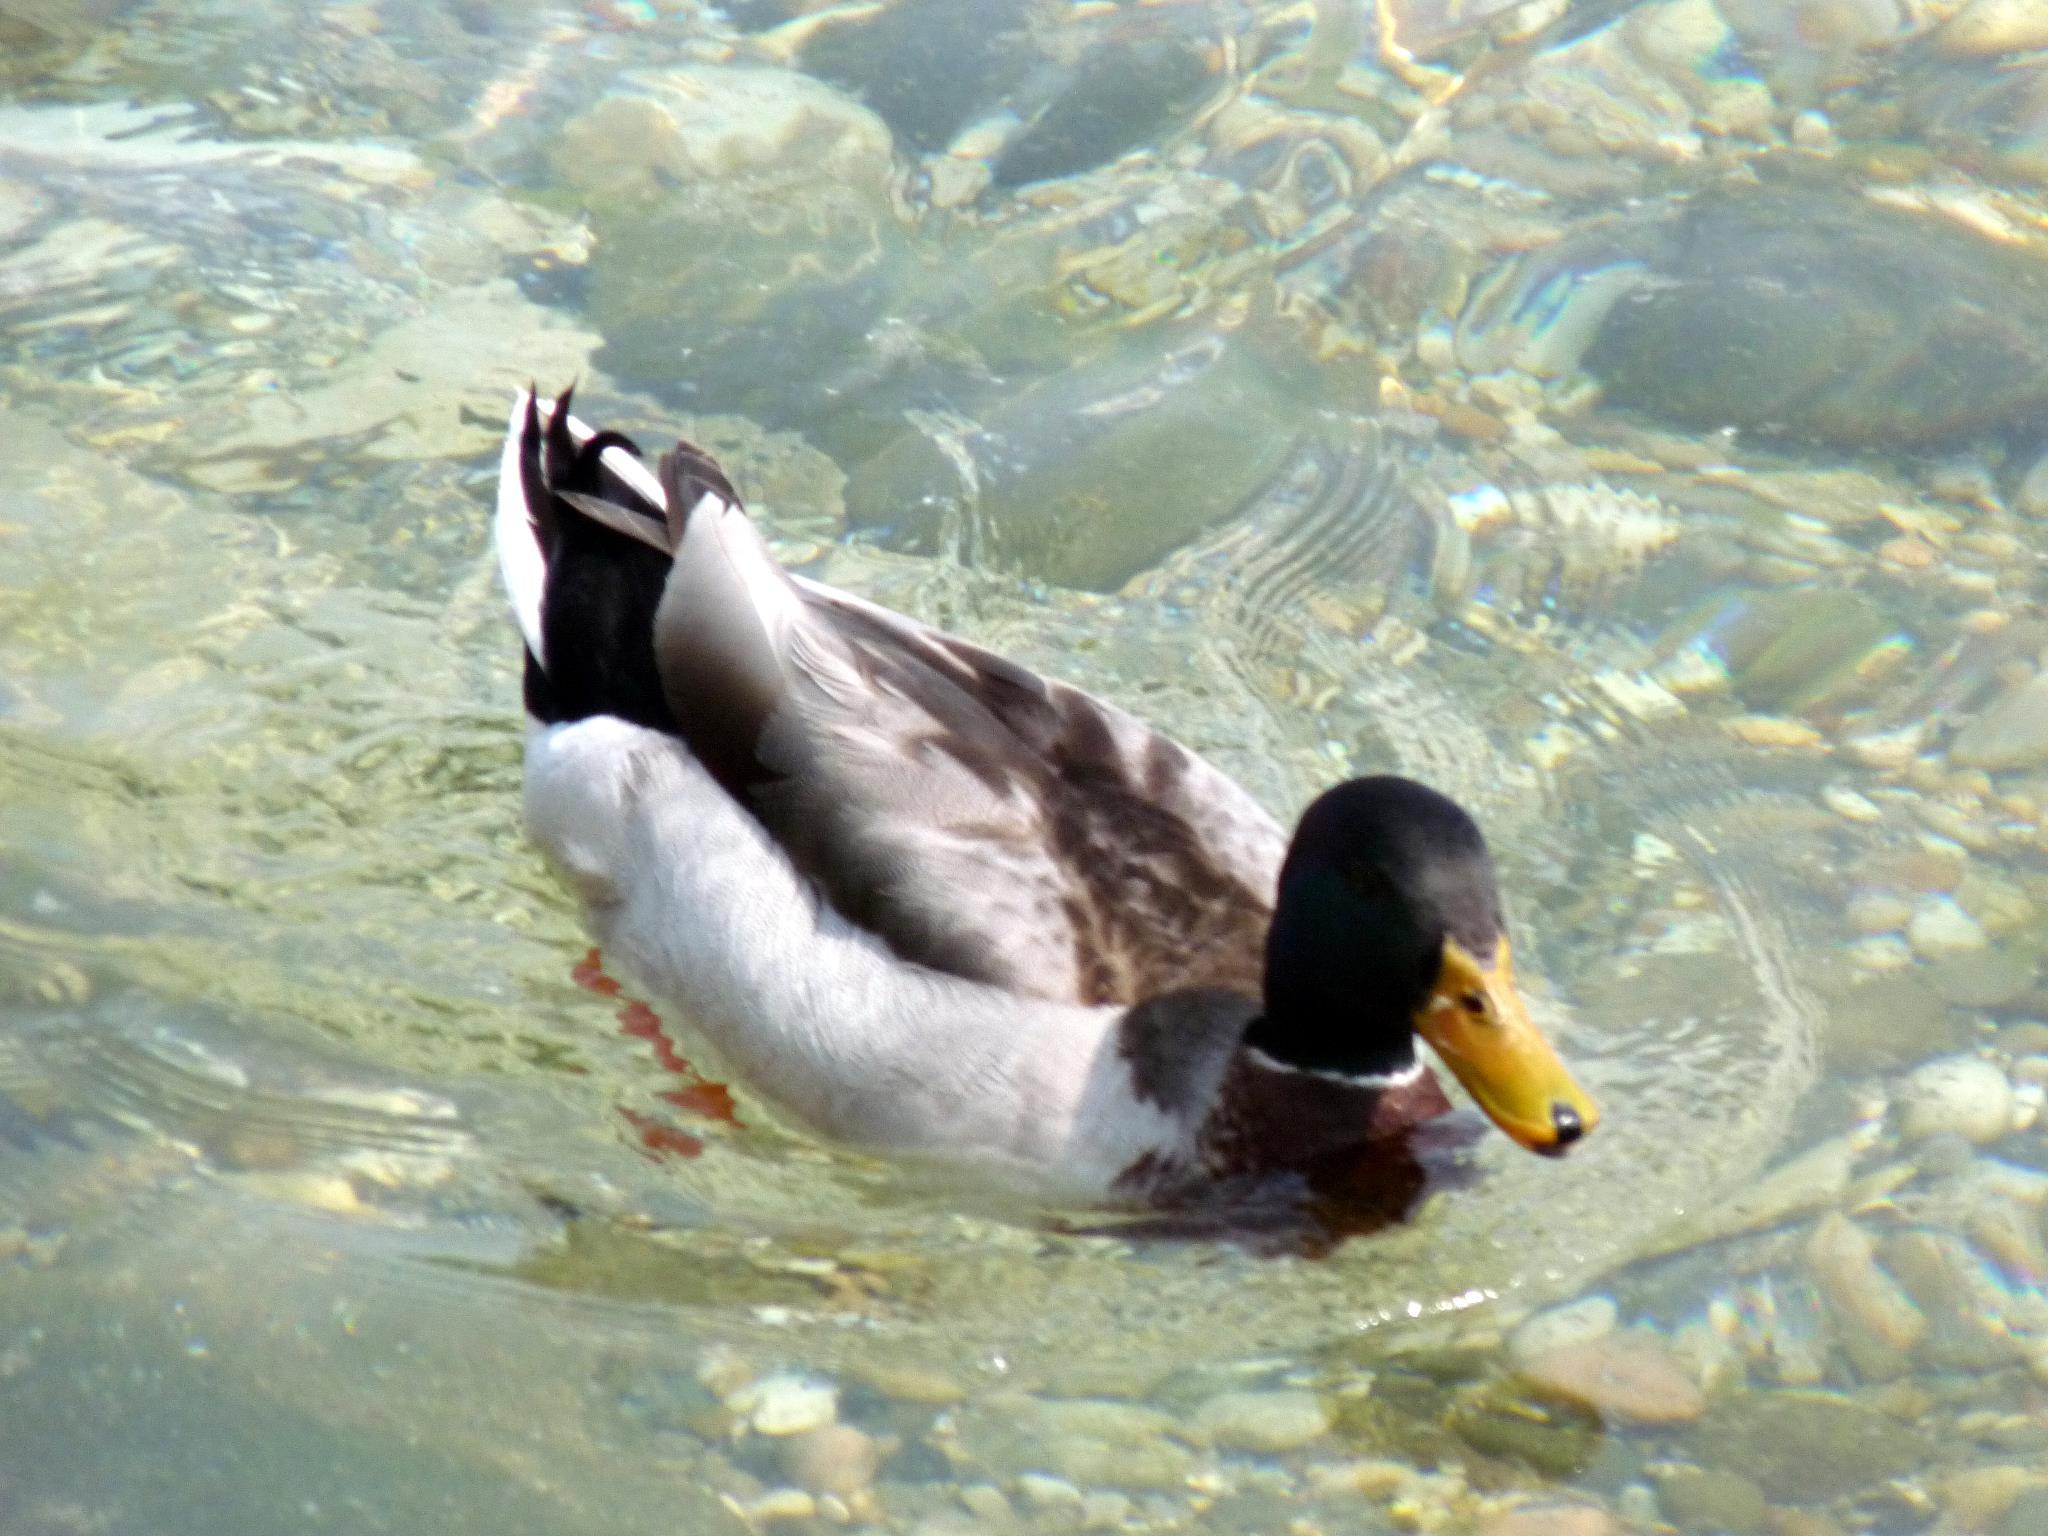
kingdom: Animalia
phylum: Chordata
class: Aves
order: Anseriformes
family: Anatidae
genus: Anas
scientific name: Anas platyrhynchos
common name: Mallard
